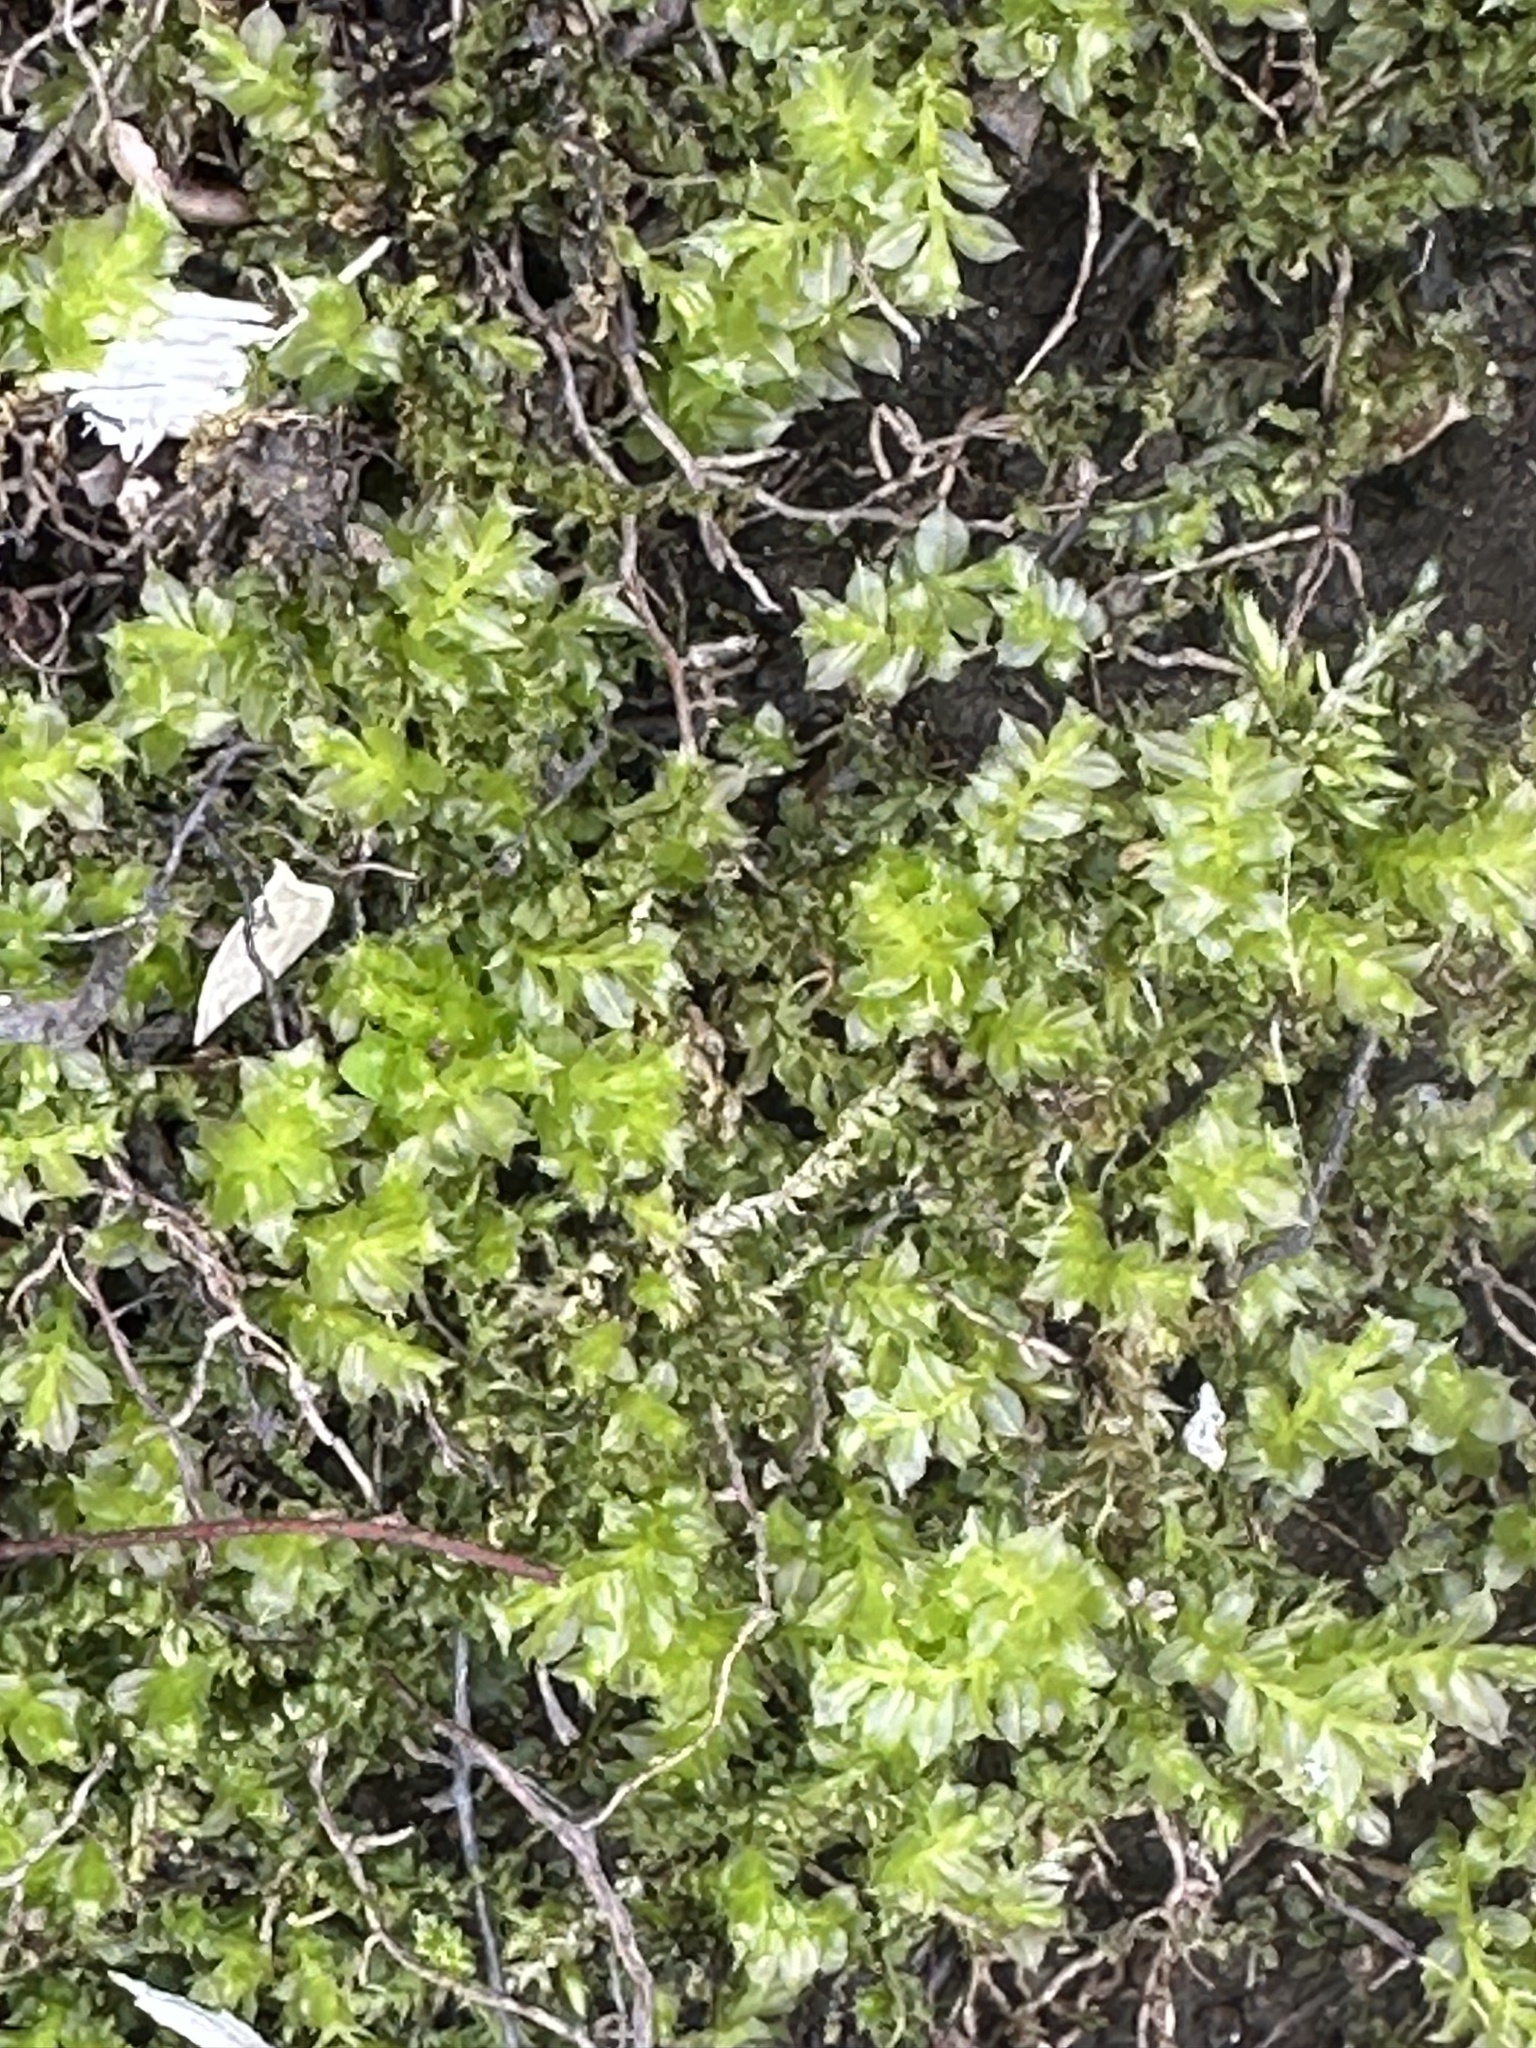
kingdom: Plantae
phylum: Bryophyta
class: Bryopsida
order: Bryales
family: Mniaceae
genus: Plagiomnium
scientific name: Plagiomnium cuspidatum
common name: Woodsy leafy moss
